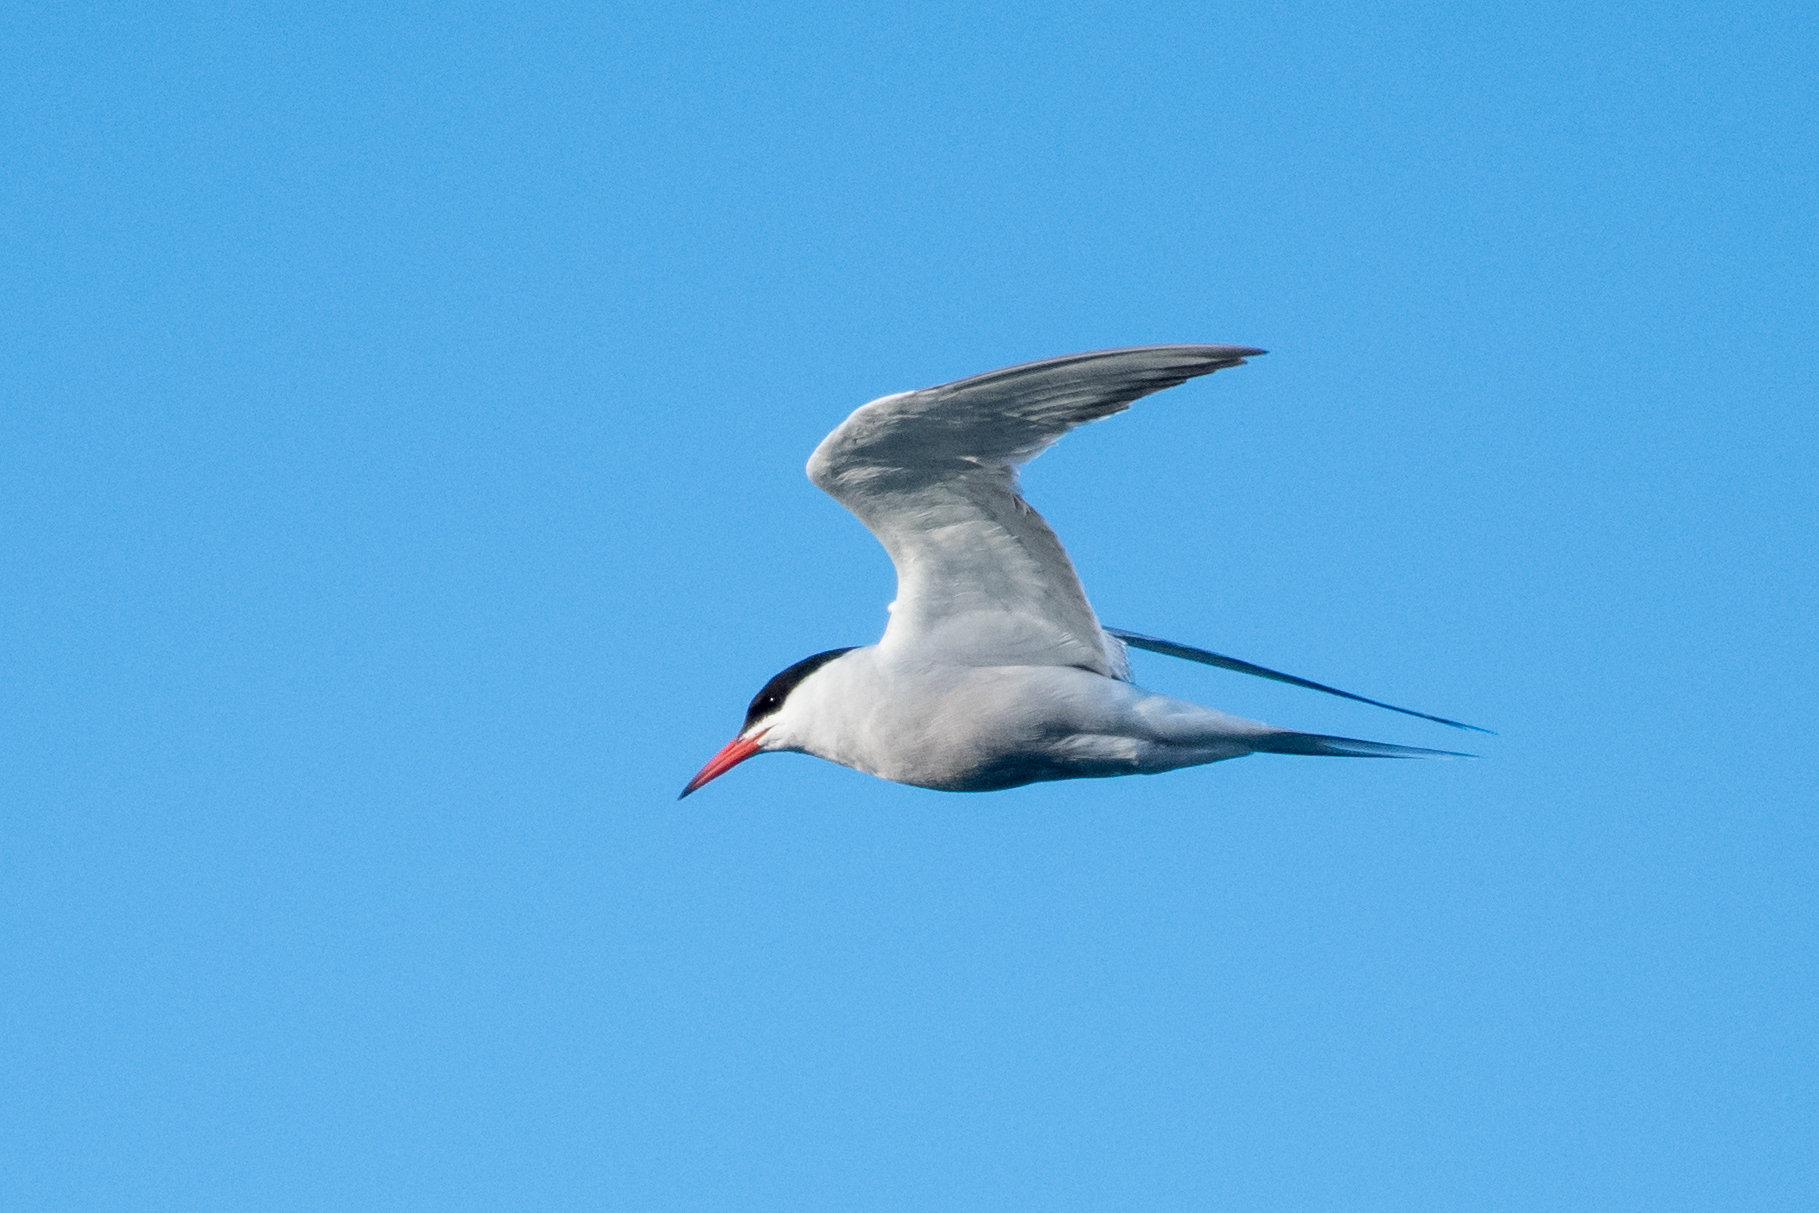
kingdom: Animalia
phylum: Chordata
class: Aves
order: Charadriiformes
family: Laridae
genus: Sterna
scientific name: Sterna hirundo
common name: Common tern
